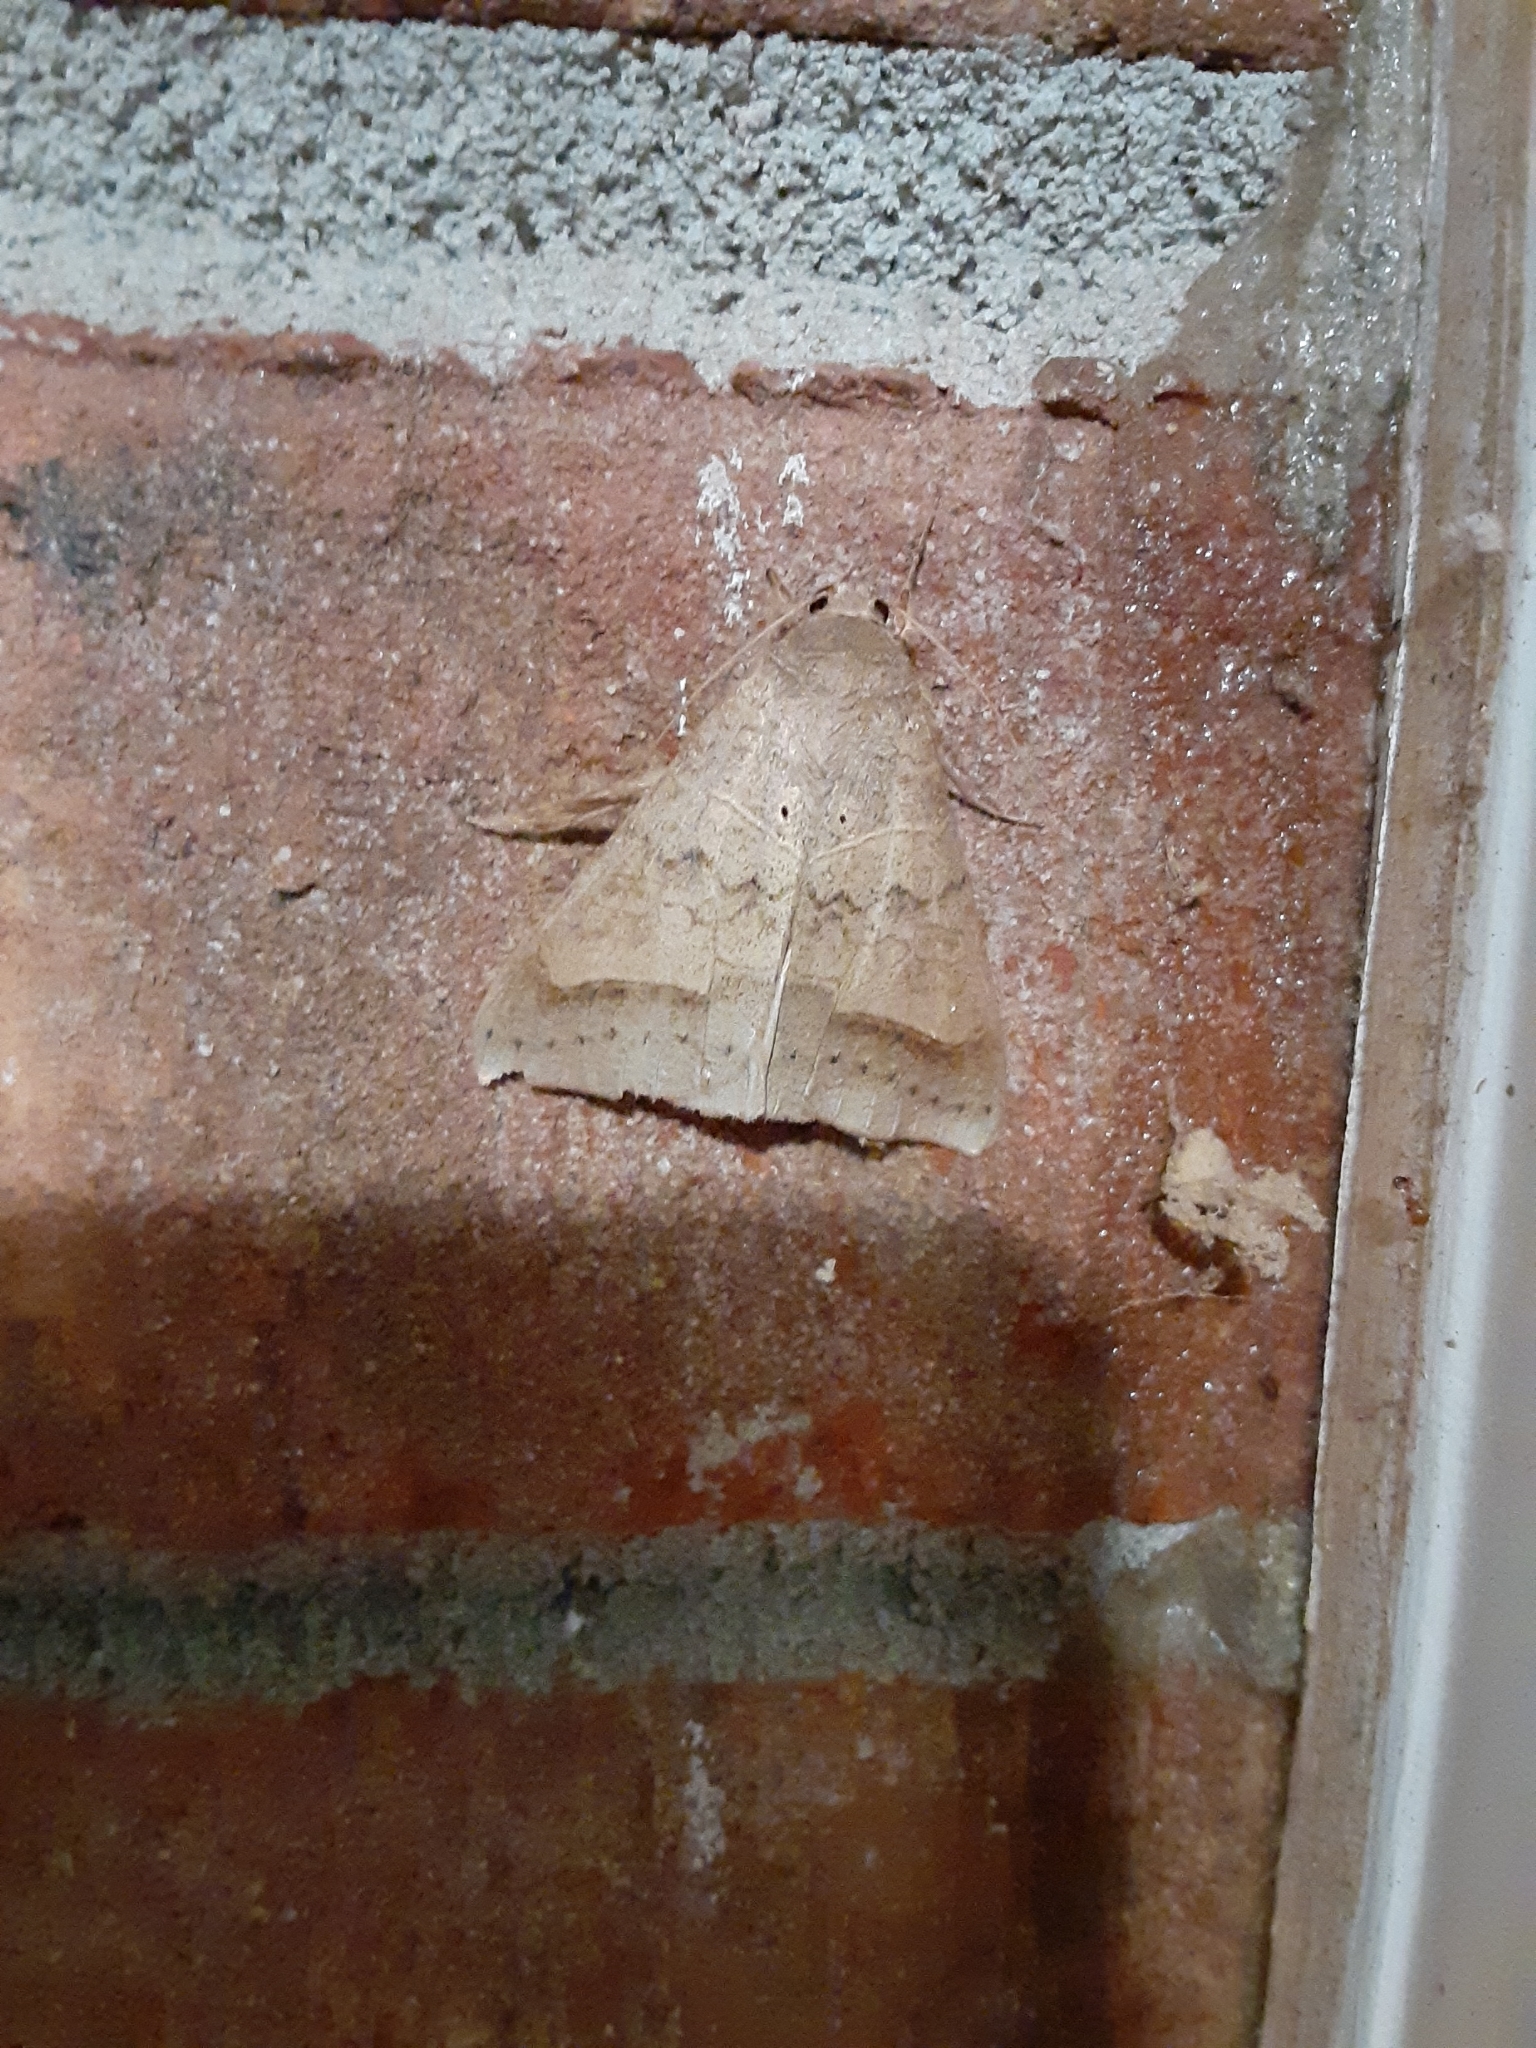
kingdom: Animalia
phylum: Arthropoda
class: Insecta
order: Lepidoptera
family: Erebidae
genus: Mocis
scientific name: Mocis marcida
